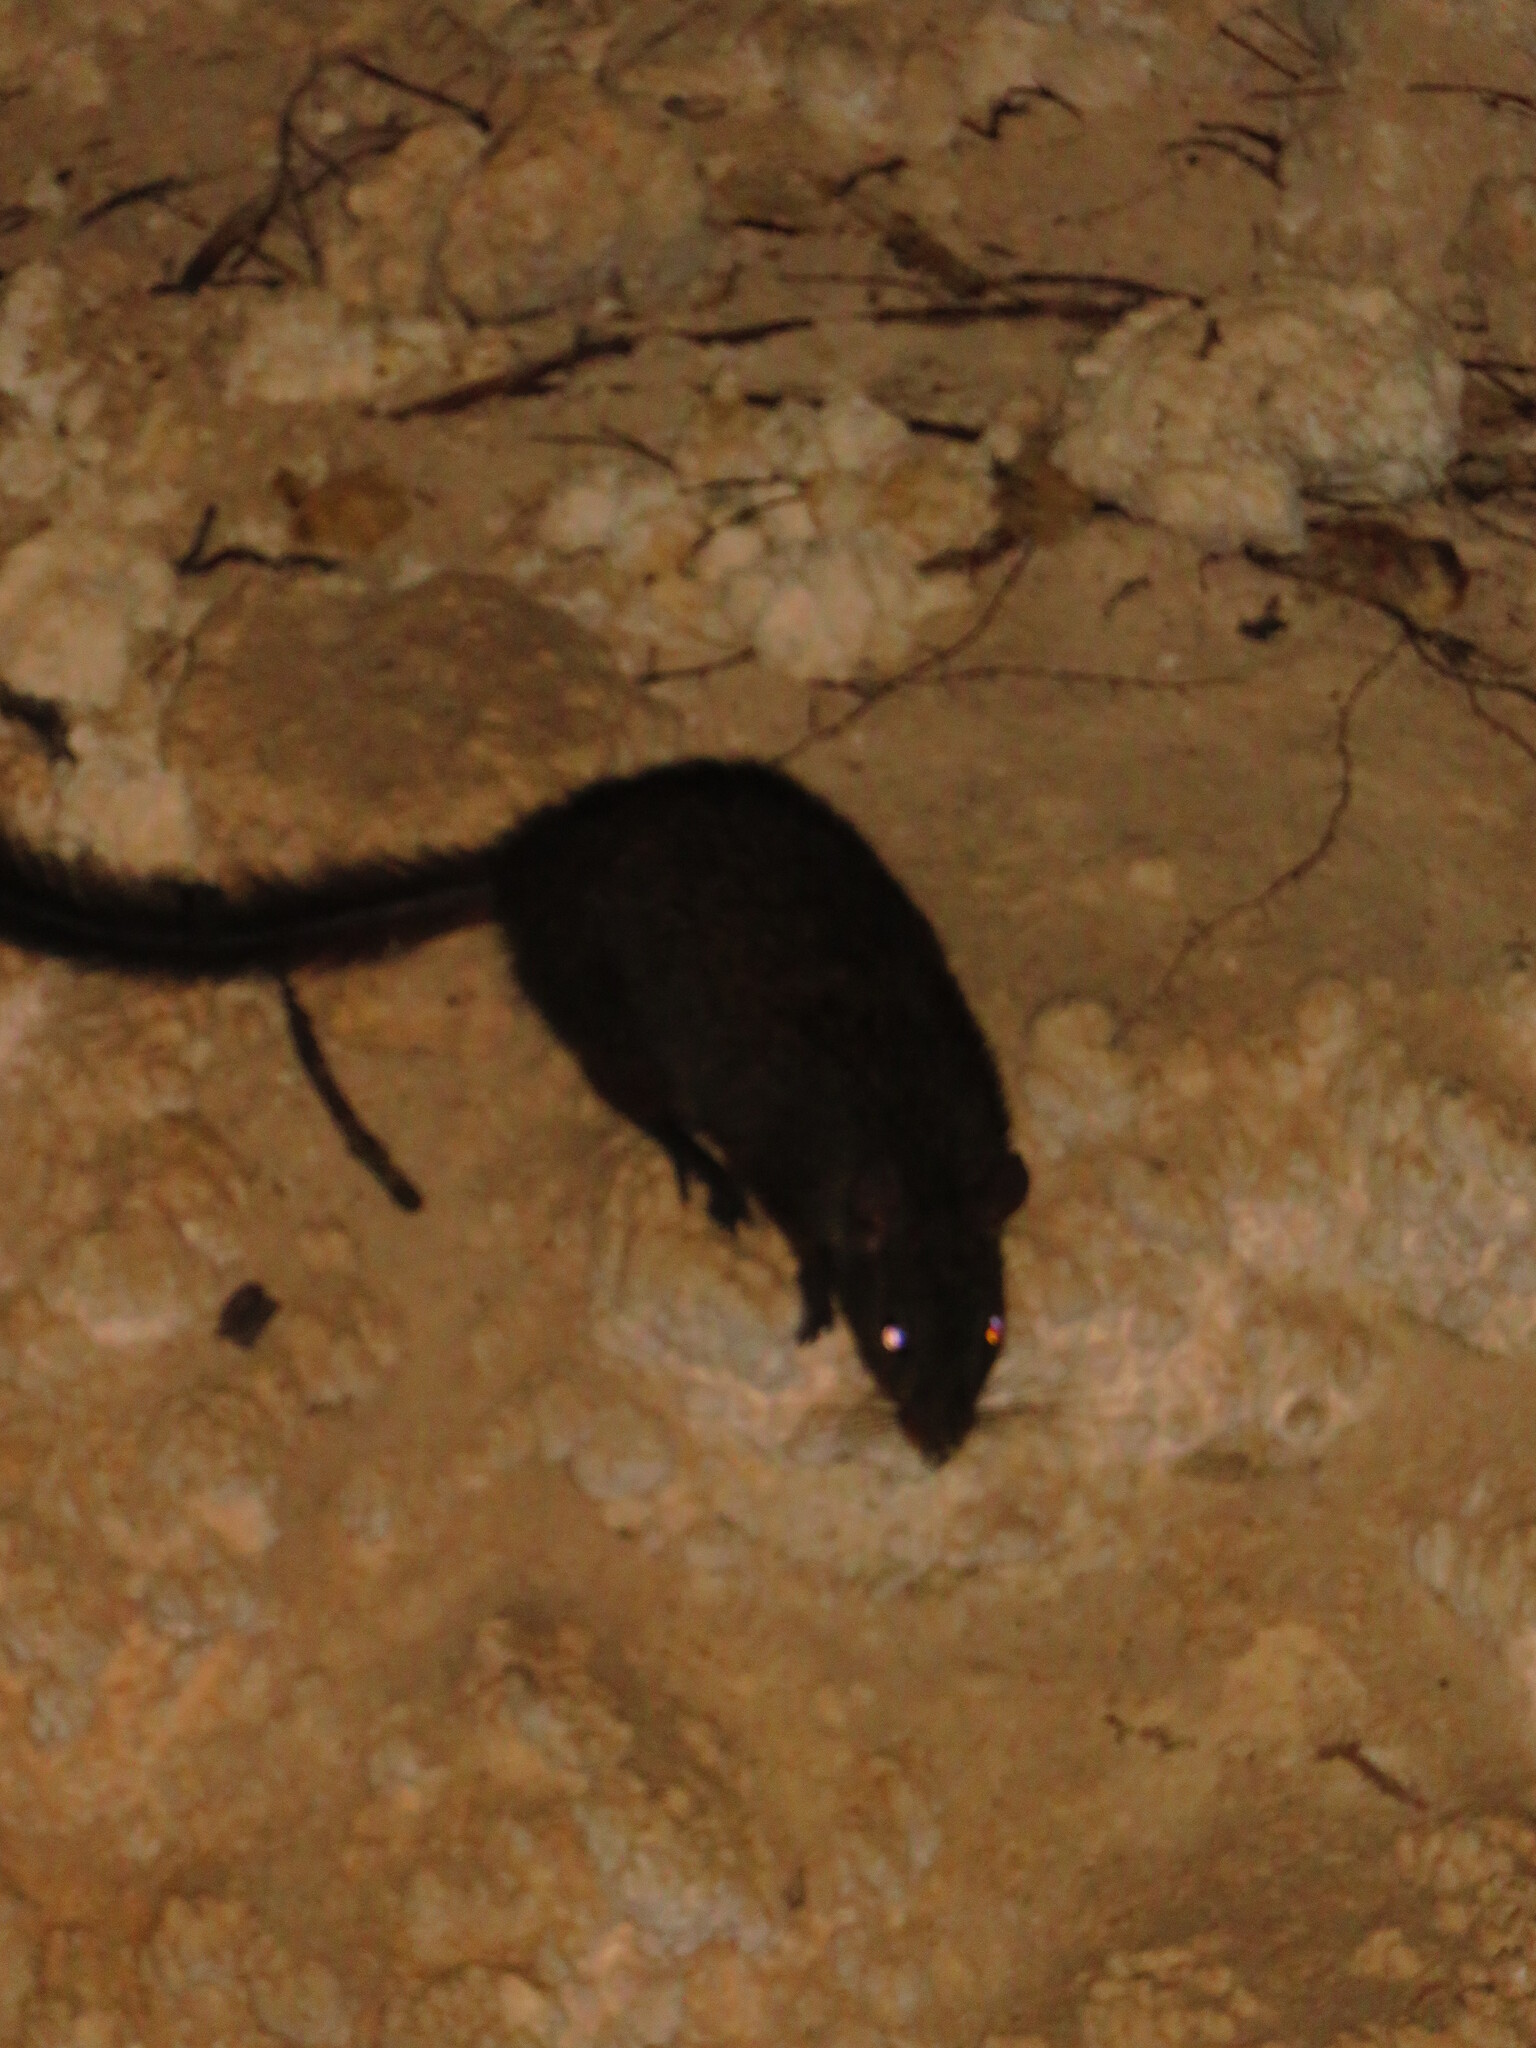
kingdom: Animalia
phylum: Chordata
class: Mammalia
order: Rodentia
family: Nesomyidae
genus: Nesomys
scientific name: Nesomys lambertoni
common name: Western nesomys
